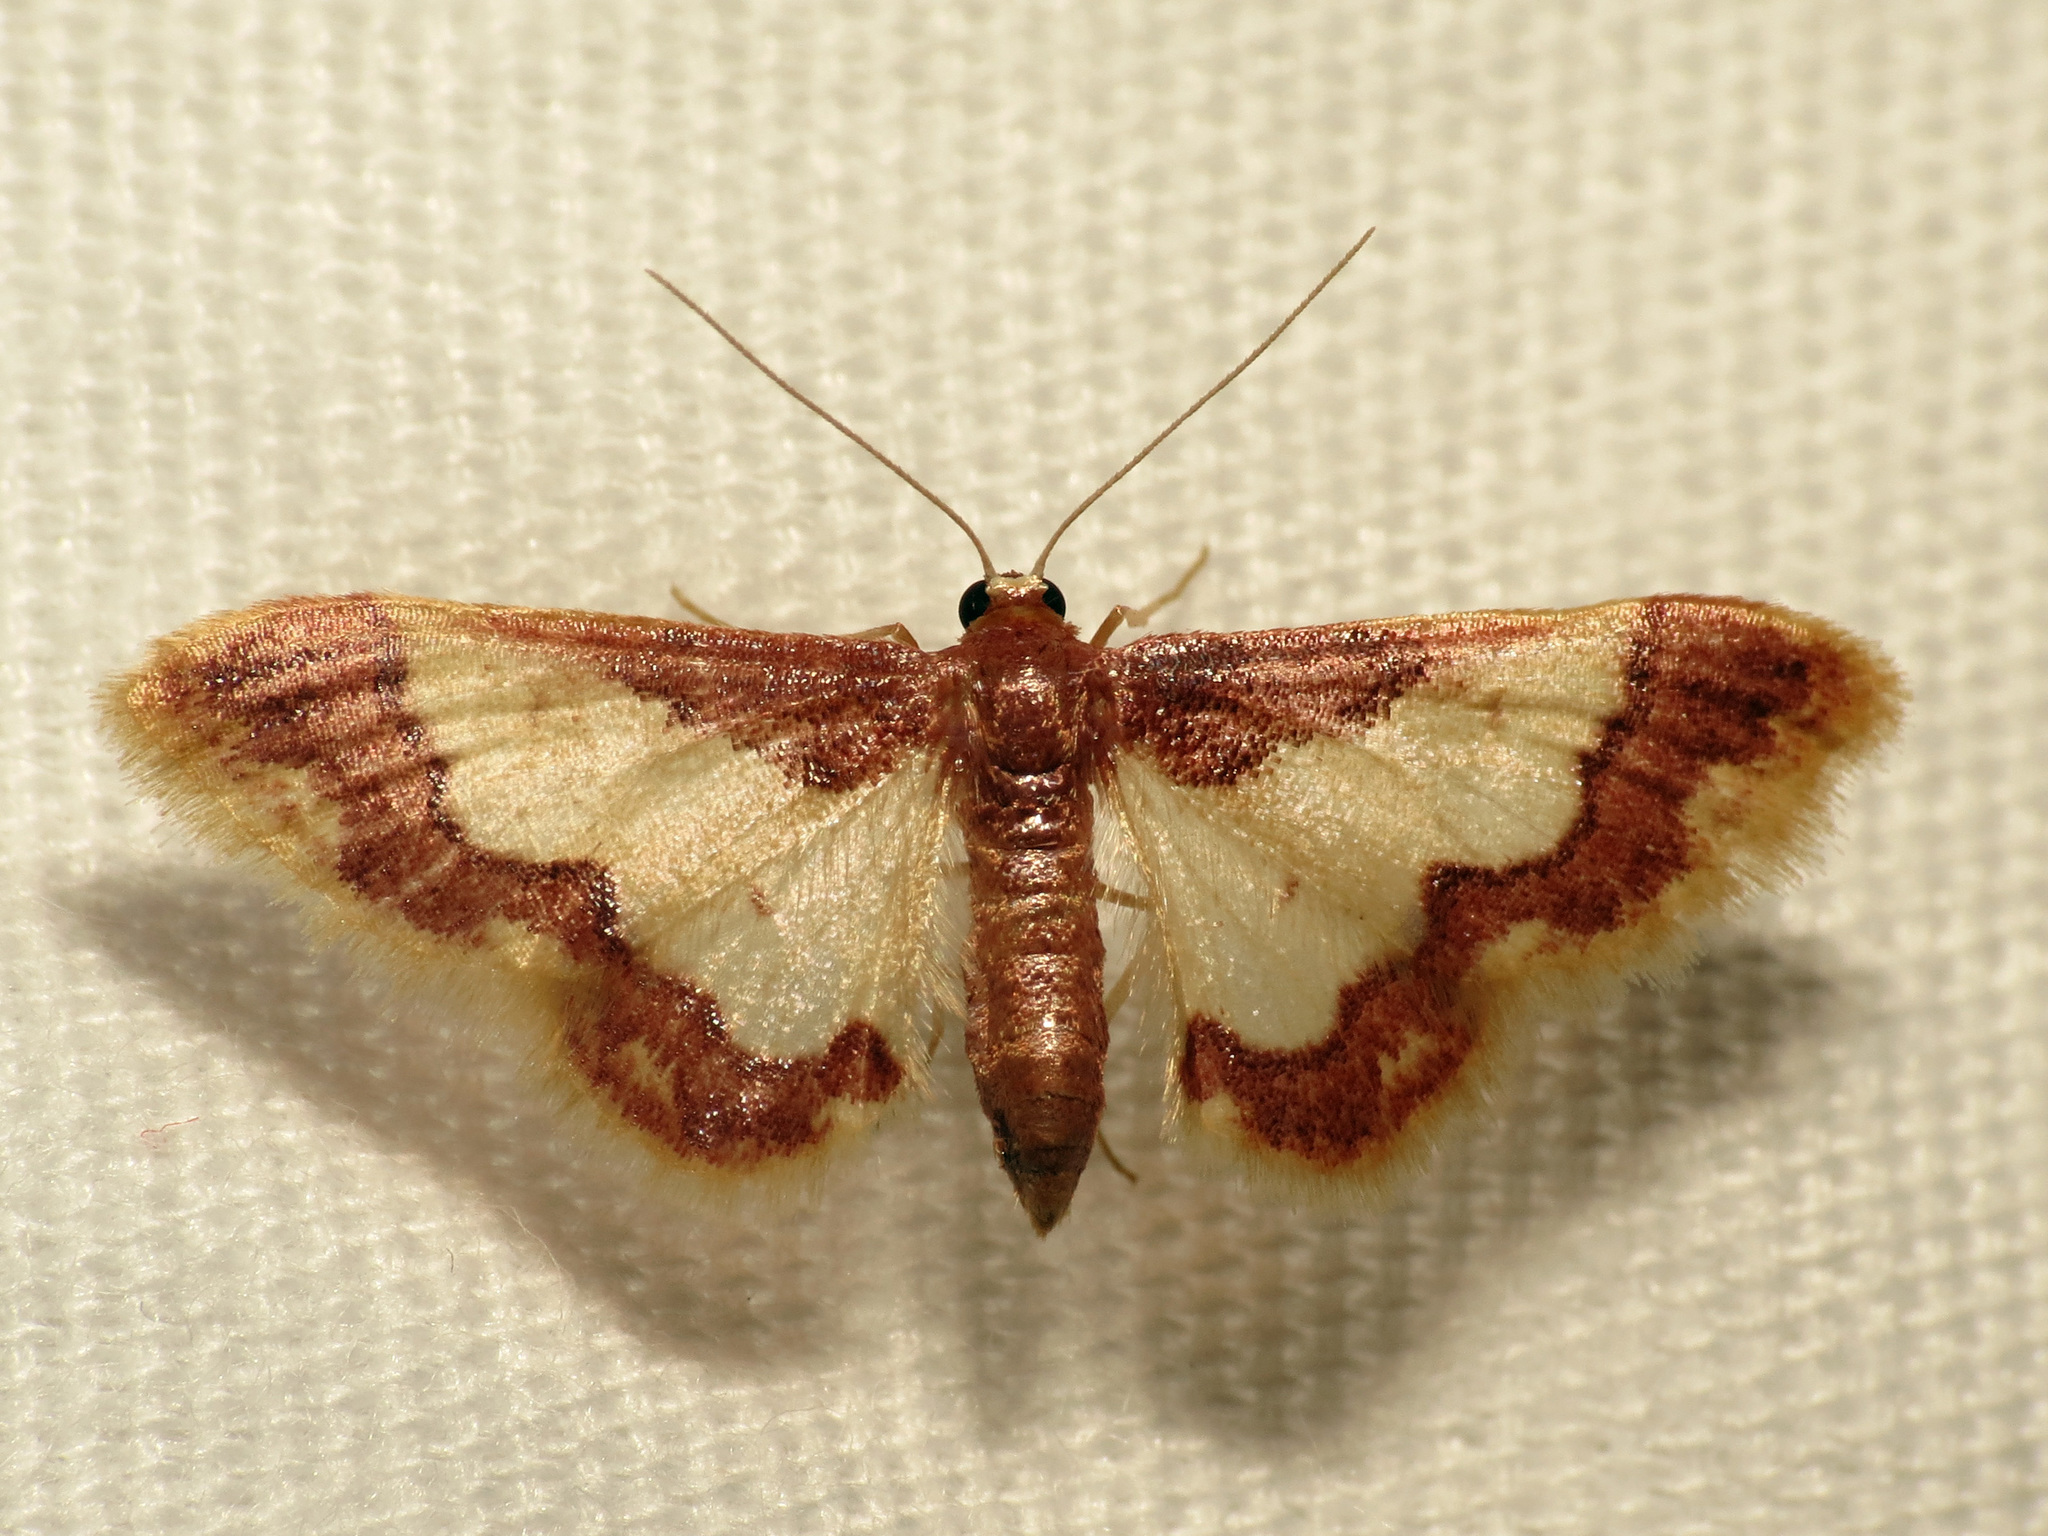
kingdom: Animalia
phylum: Arthropoda
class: Insecta
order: Lepidoptera
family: Geometridae
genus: Idaea
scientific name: Idaea basinta
